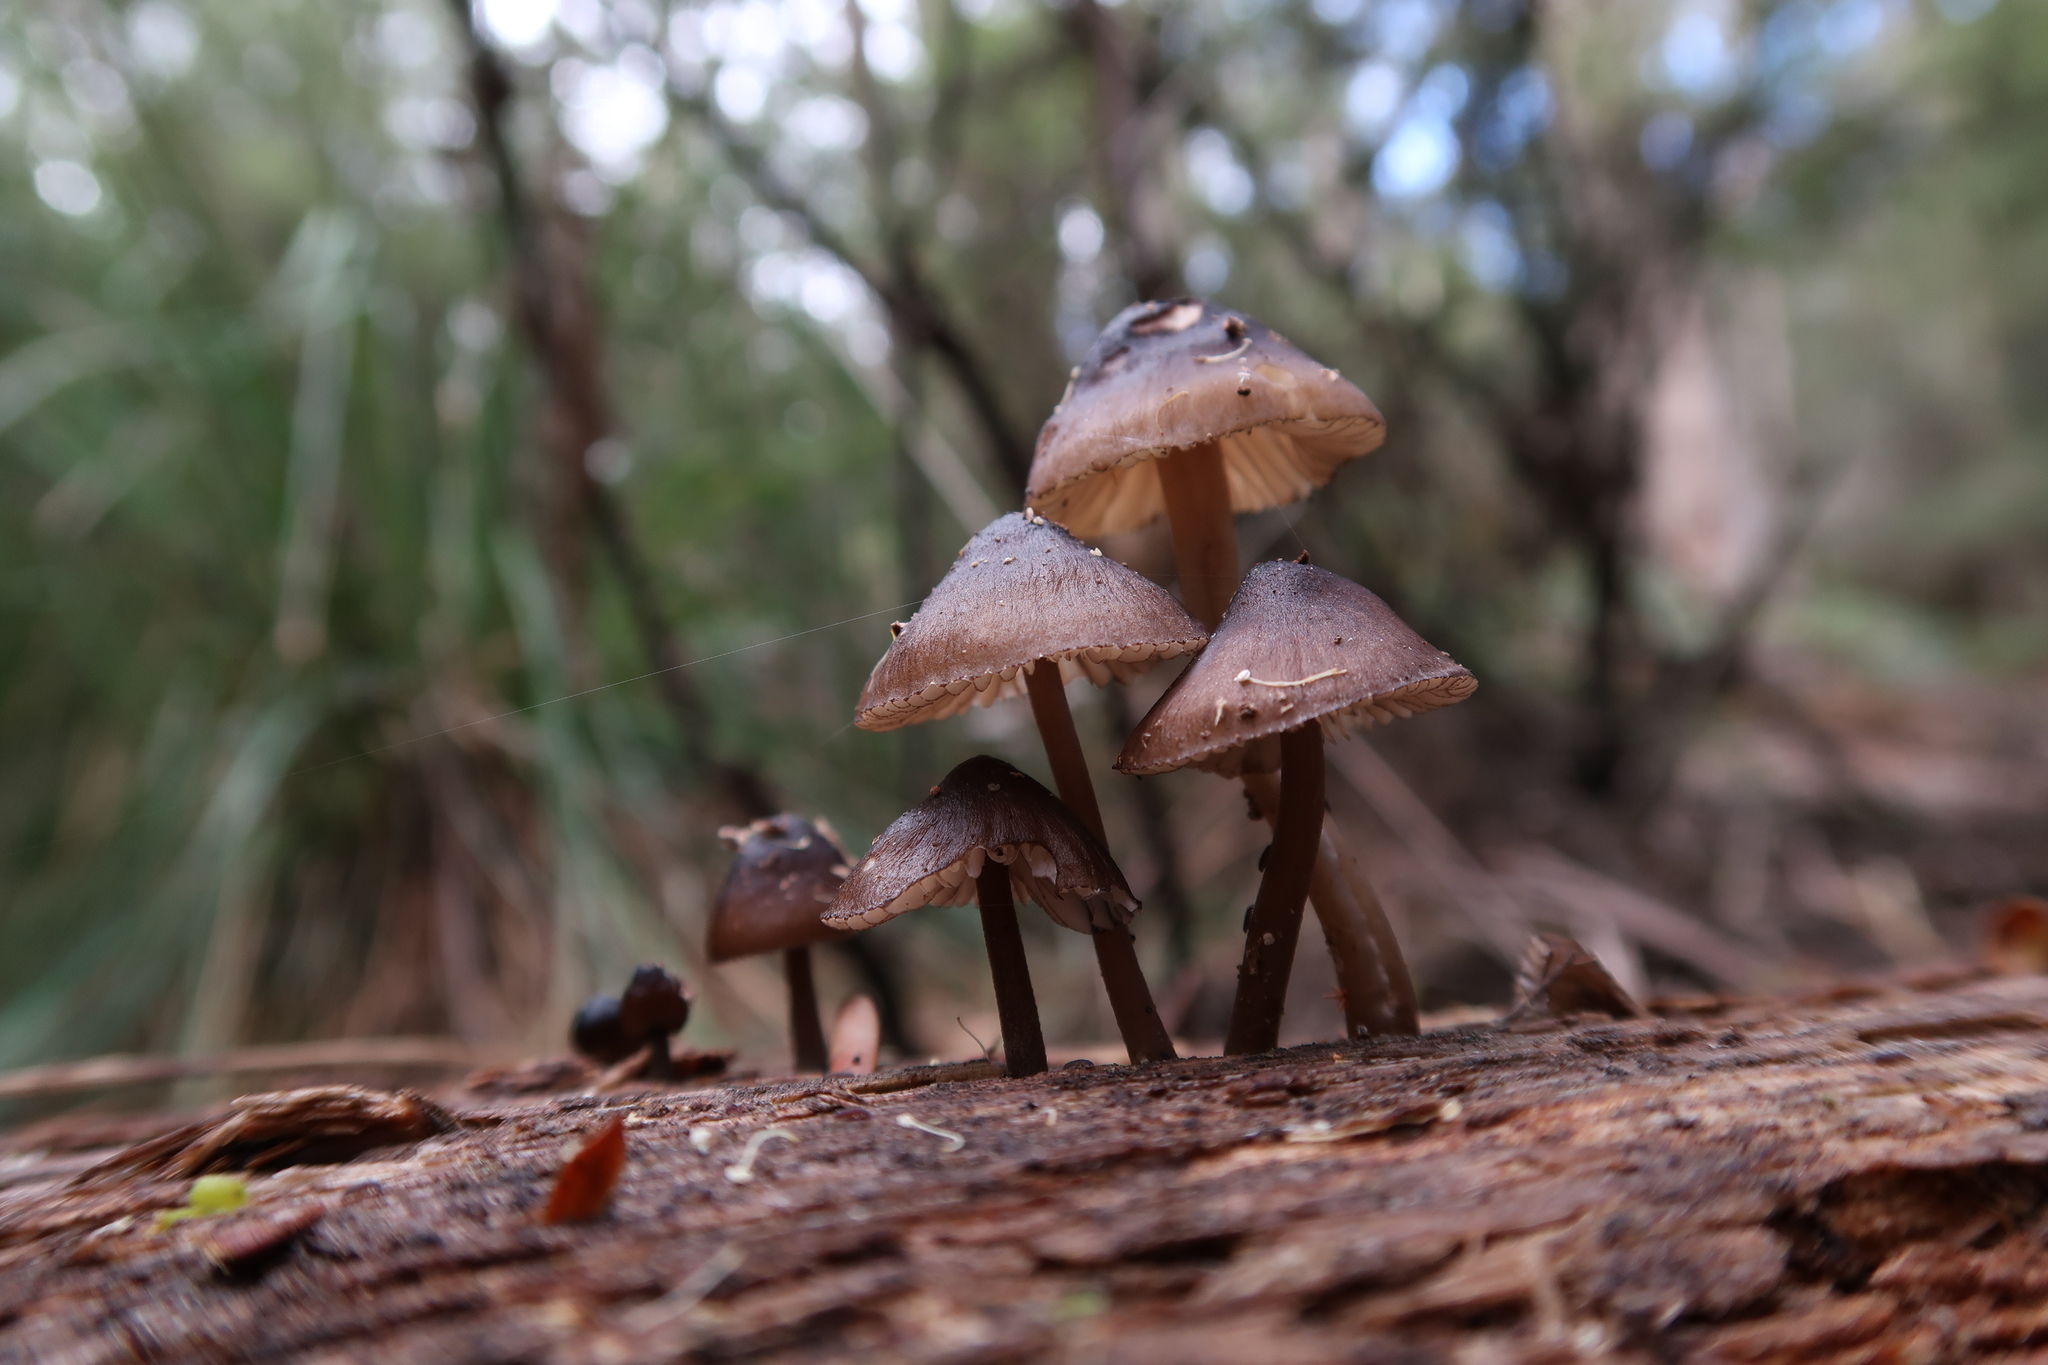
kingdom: Fungi
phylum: Basidiomycota
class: Agaricomycetes
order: Agaricales
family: Mycenaceae
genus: Mycena
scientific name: Mycena mulawaestris
